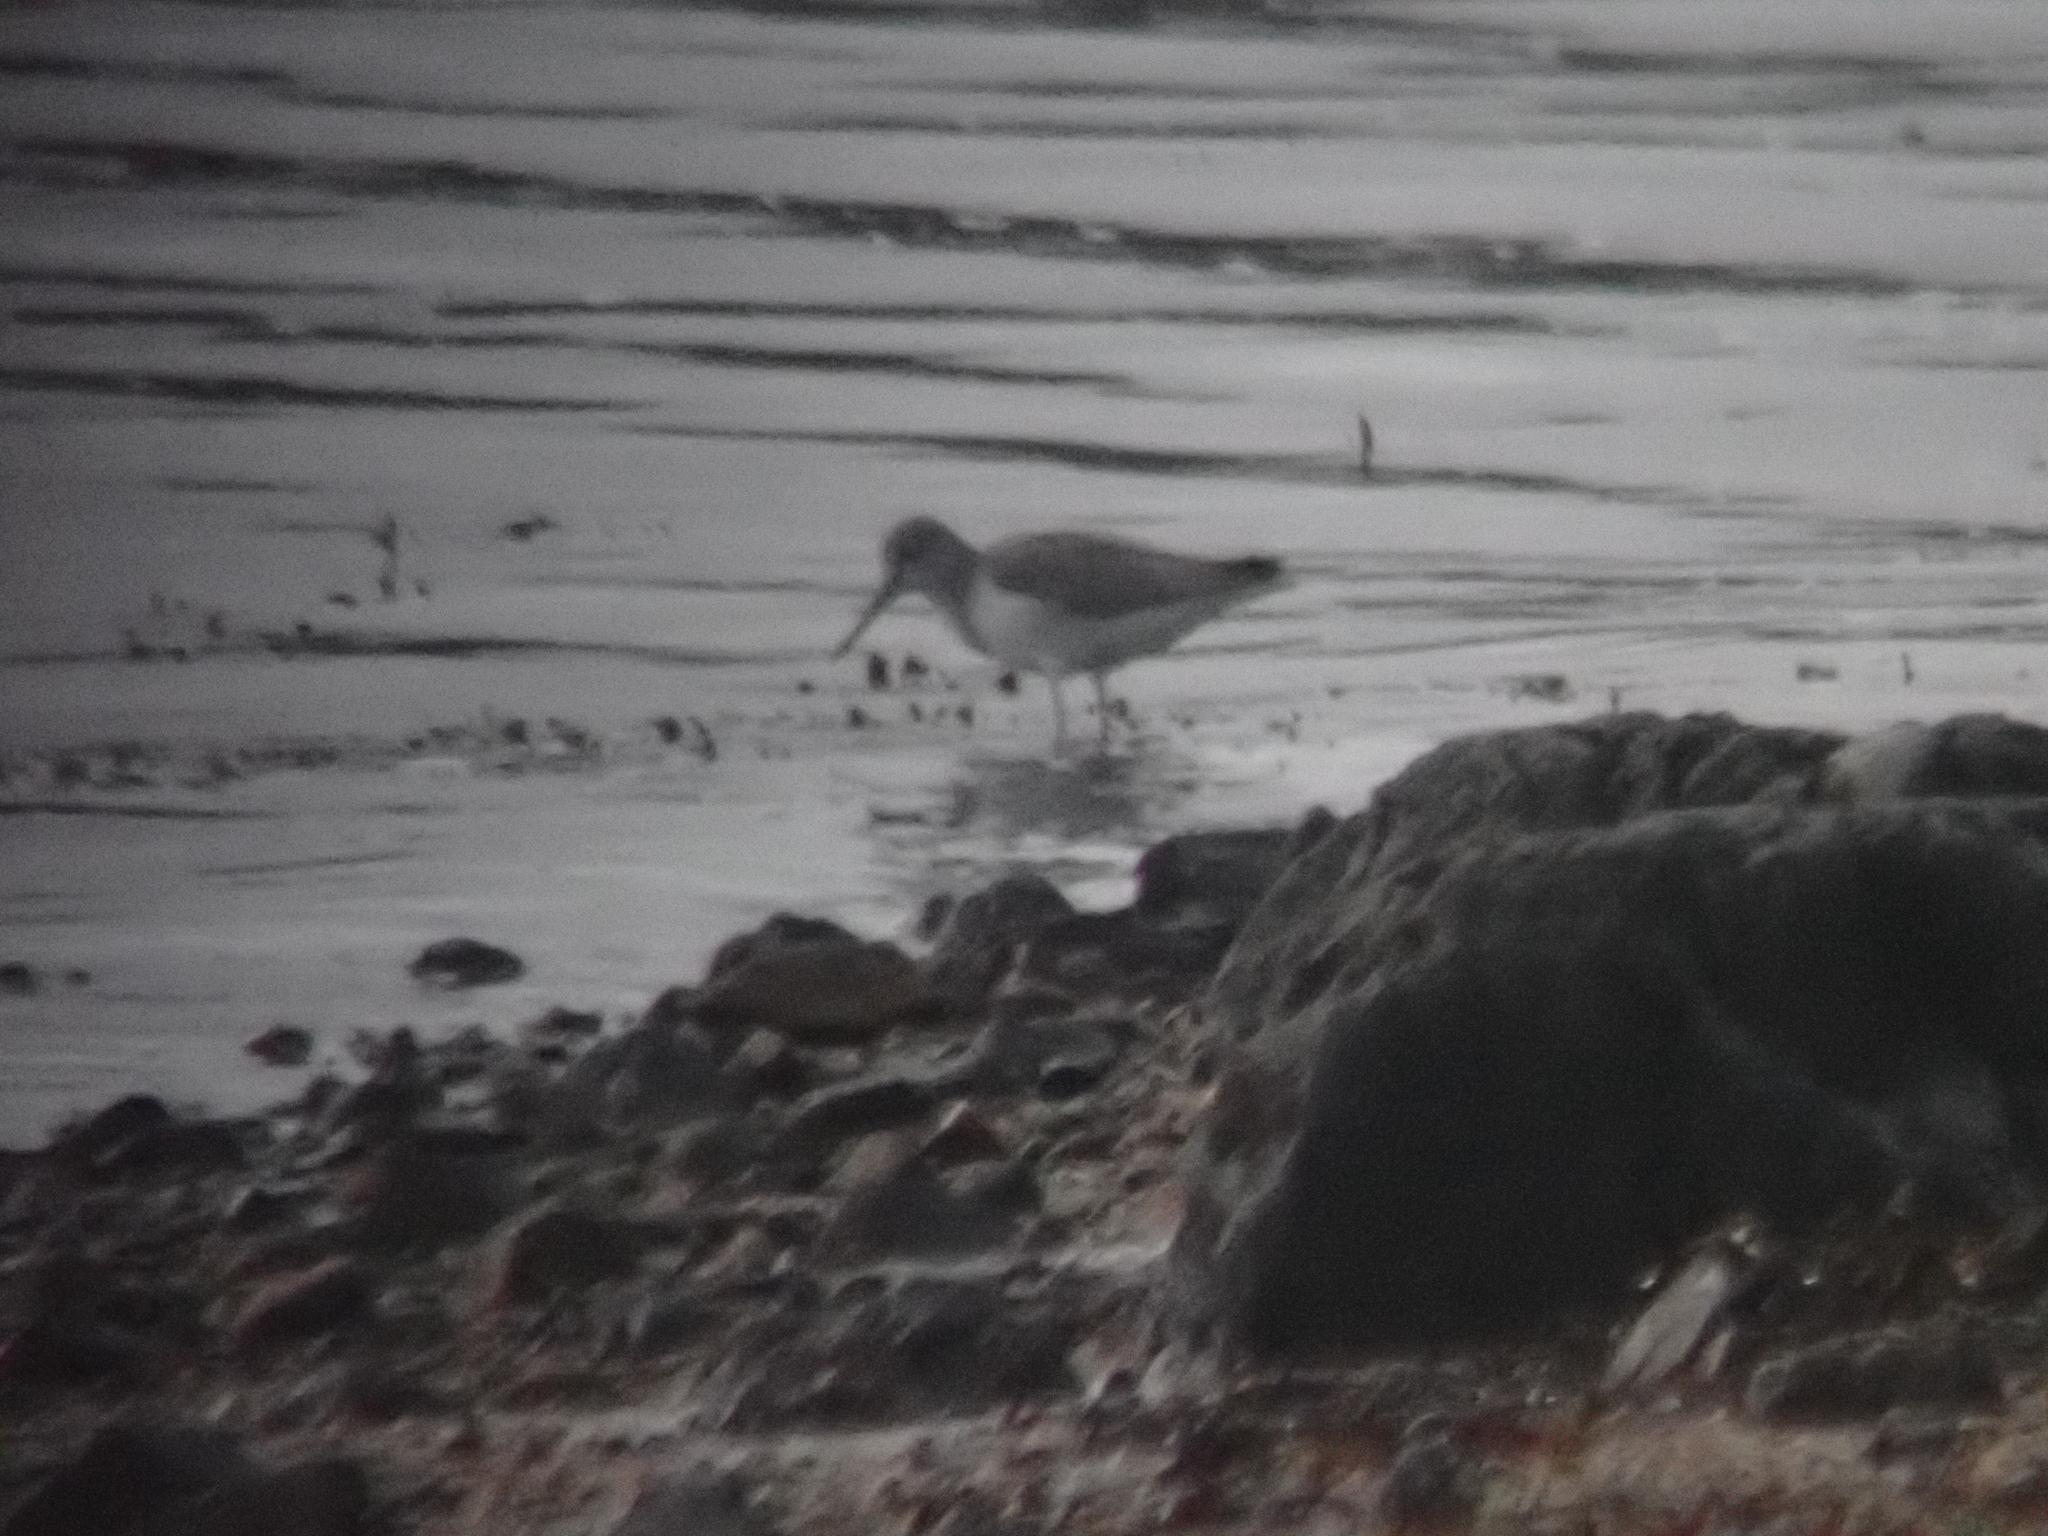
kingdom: Animalia
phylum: Chordata
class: Aves
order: Charadriiformes
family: Scolopacidae
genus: Tringa
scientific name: Tringa nebularia
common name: Common greenshank
